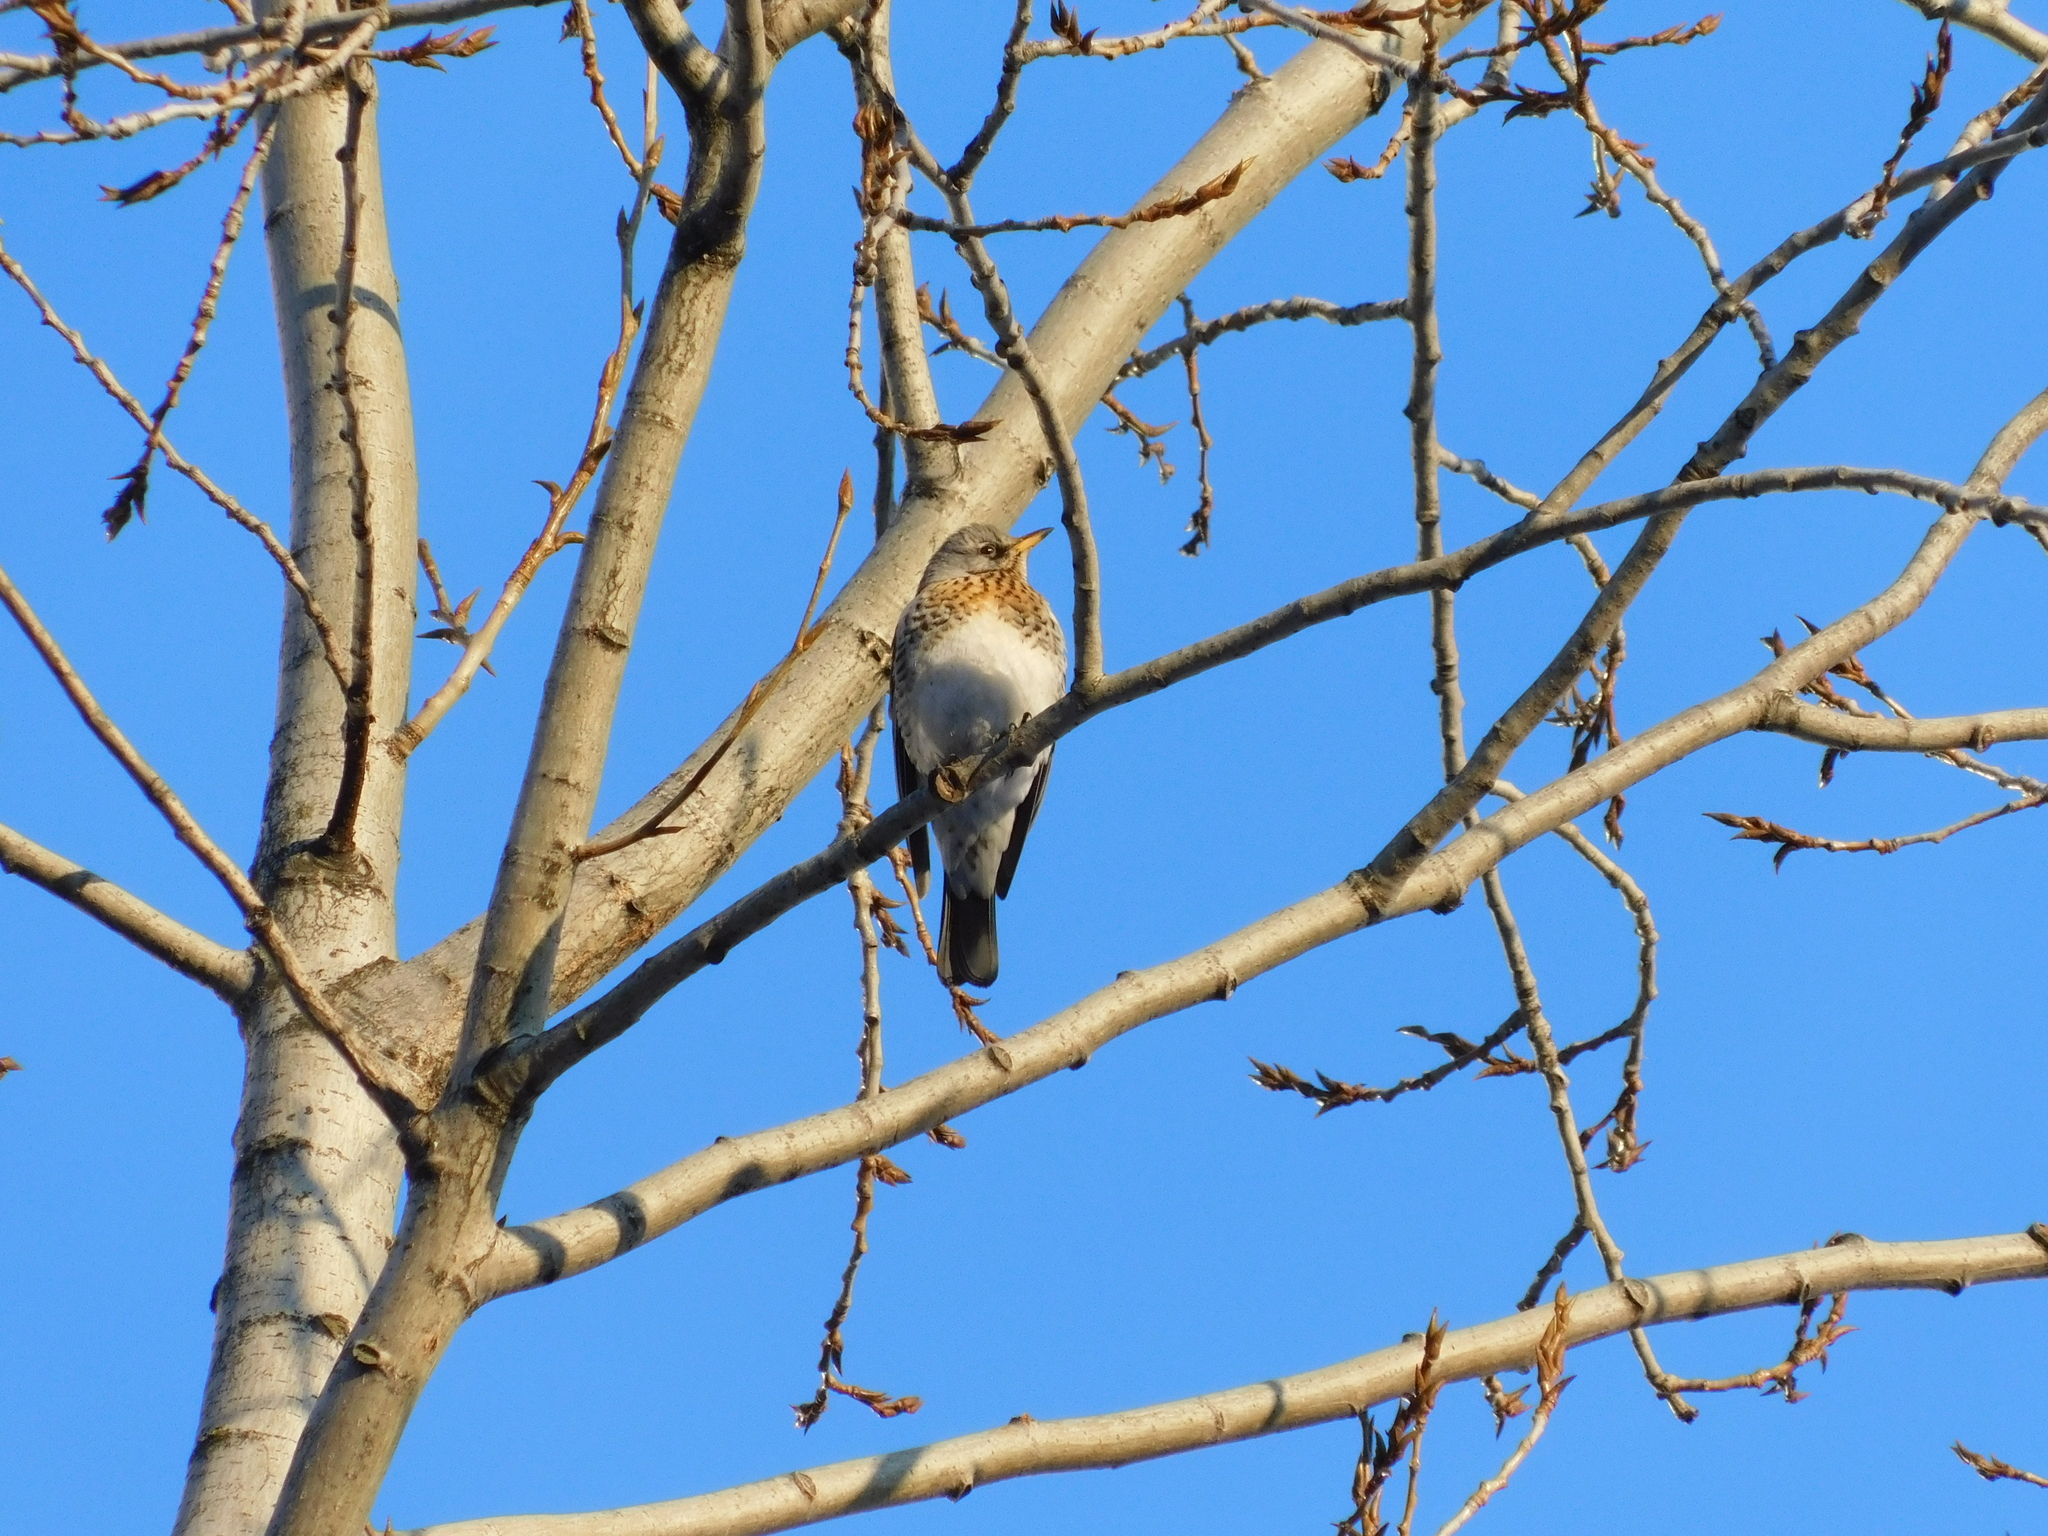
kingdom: Animalia
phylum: Chordata
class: Aves
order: Passeriformes
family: Turdidae
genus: Turdus
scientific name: Turdus pilaris
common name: Fieldfare
